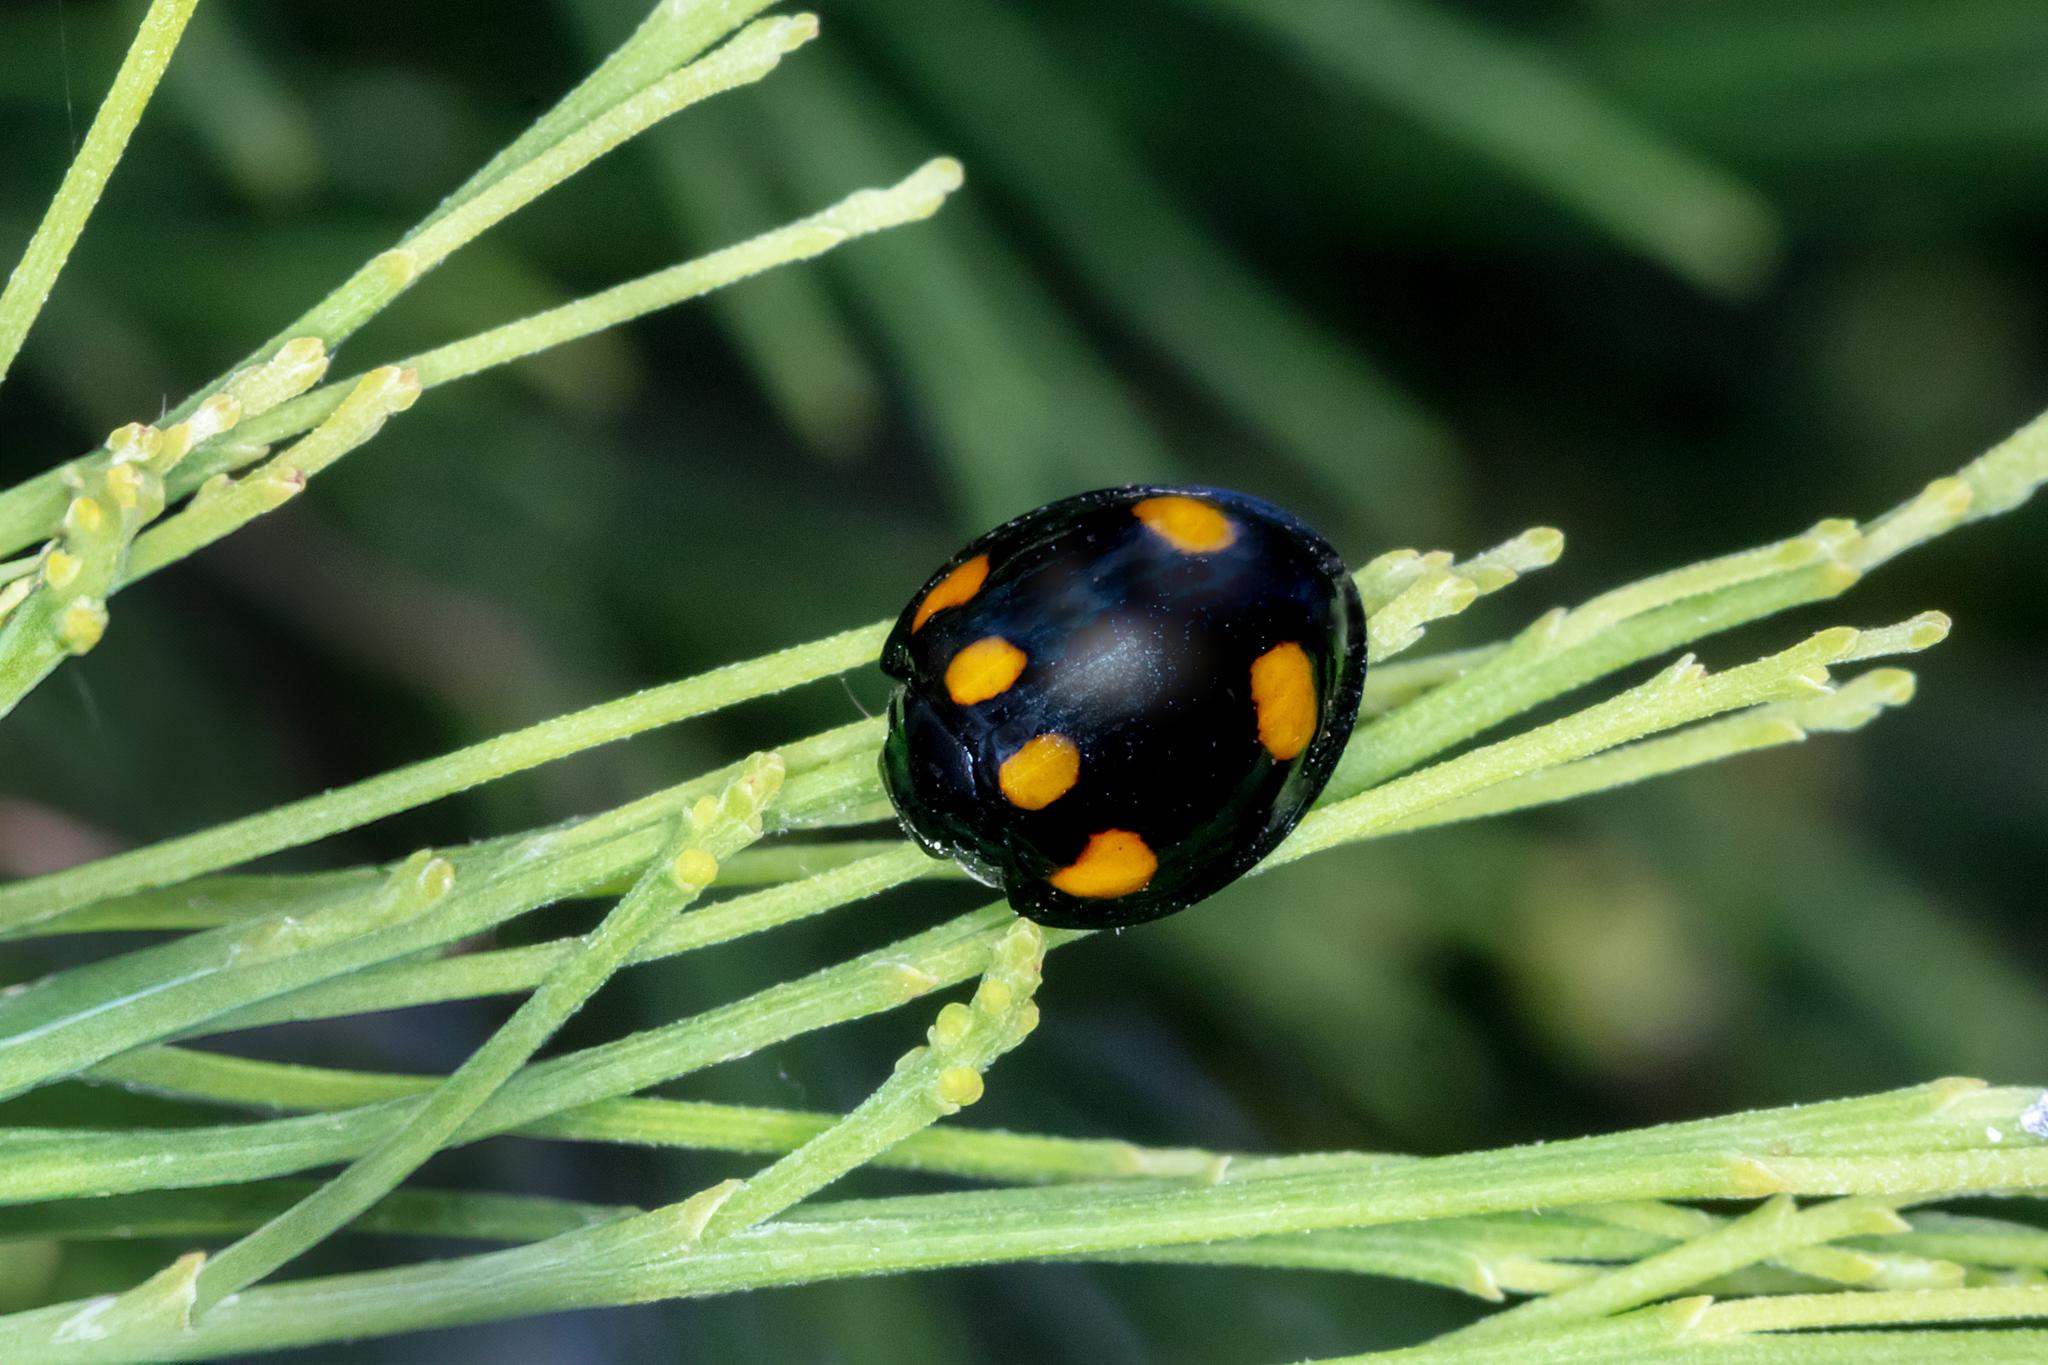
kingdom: Animalia
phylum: Arthropoda
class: Insecta
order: Coleoptera
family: Coccinellidae
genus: Orcus
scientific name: Orcus australasiae
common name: Lady beetle
